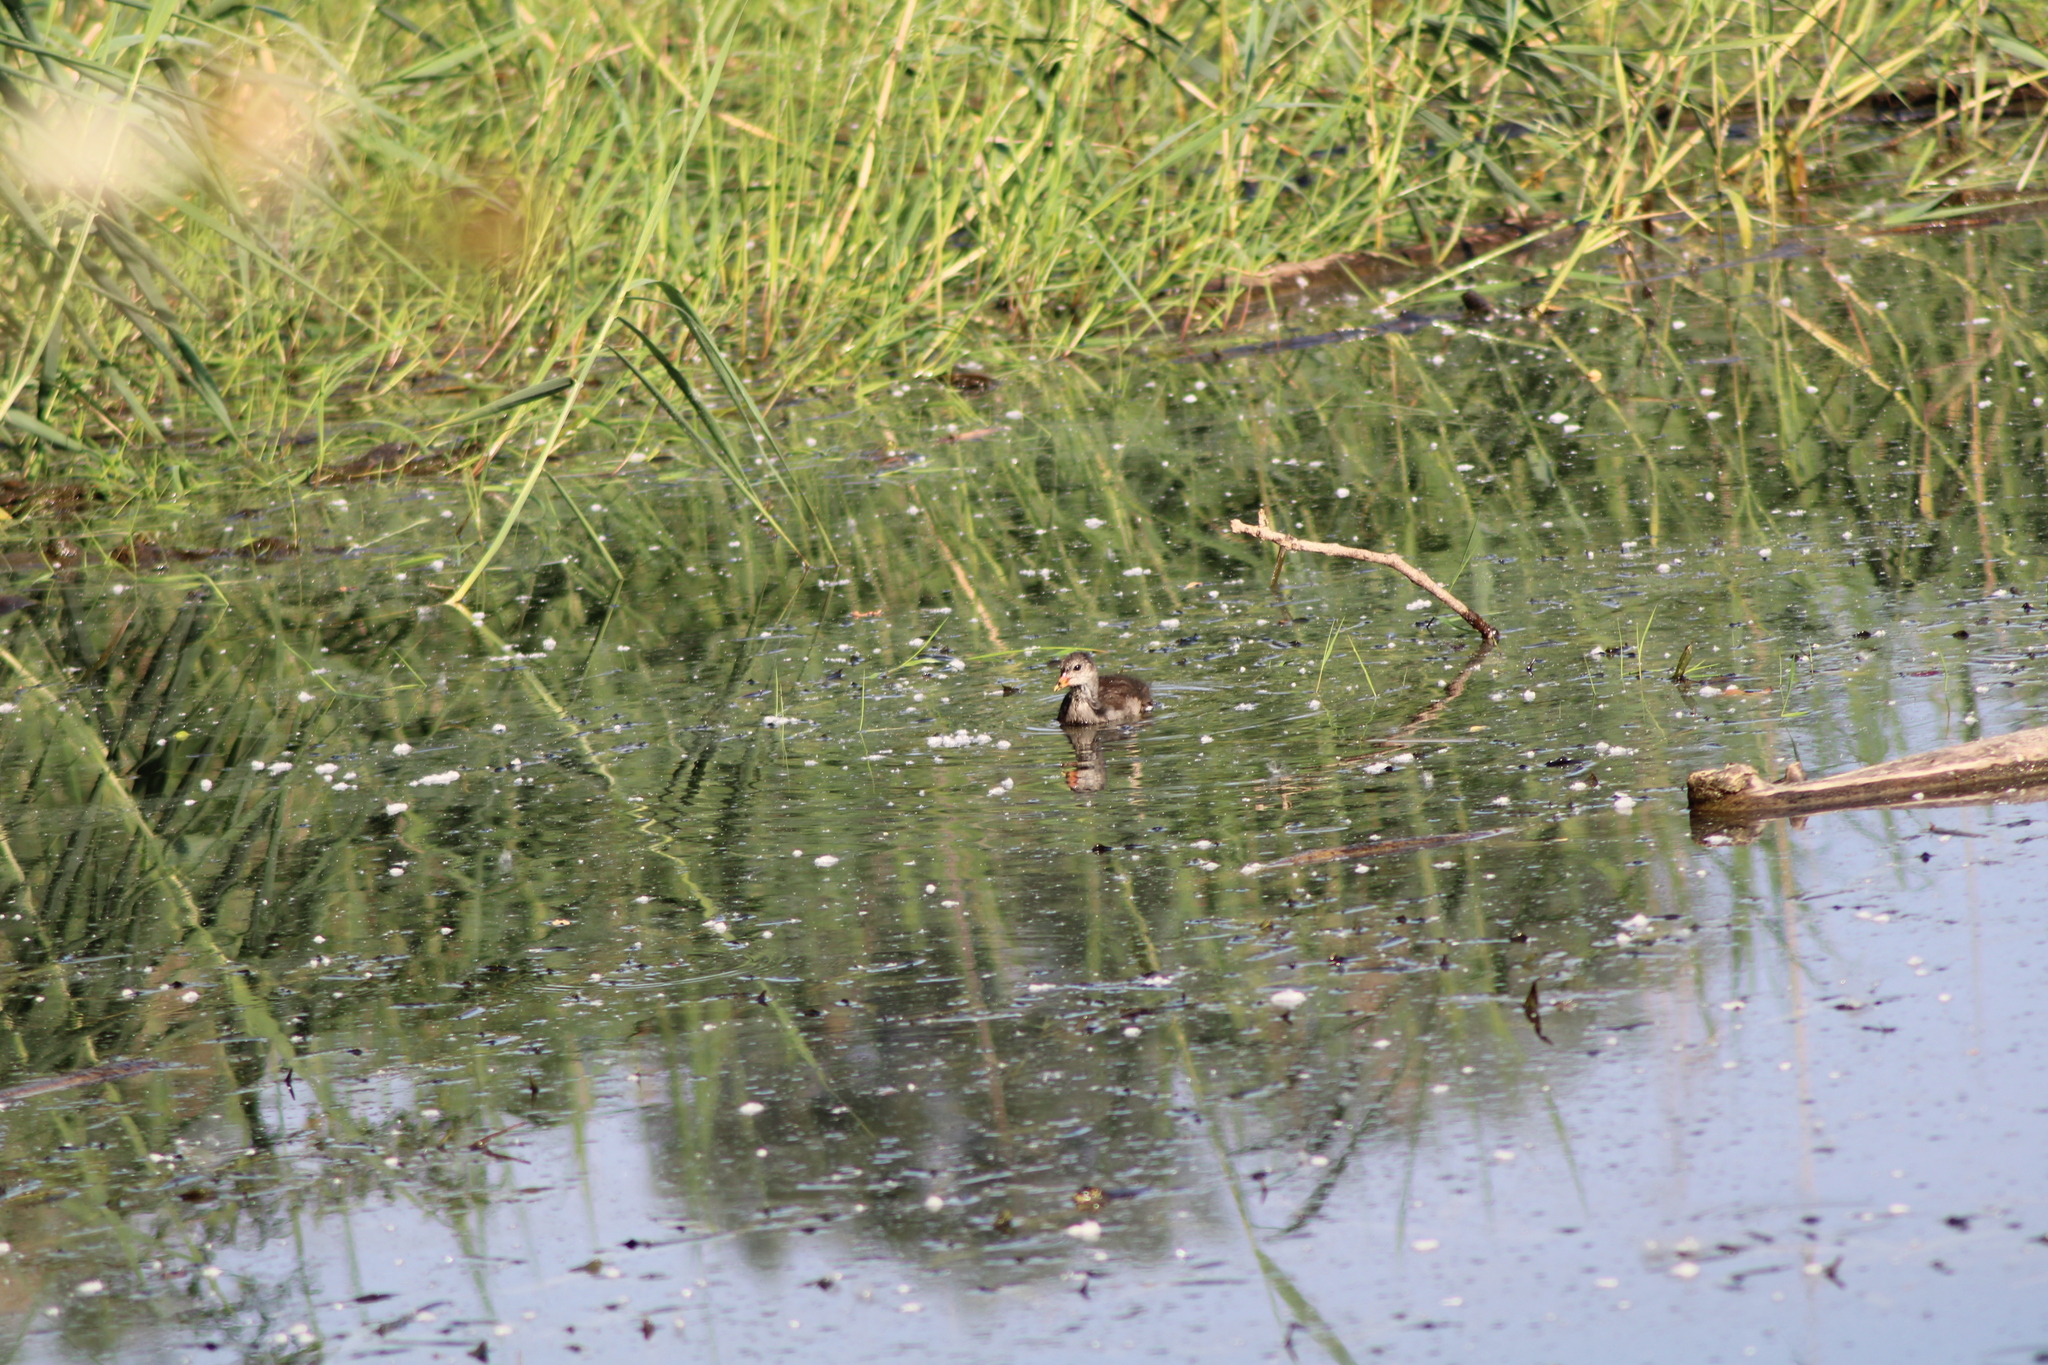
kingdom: Animalia
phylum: Chordata
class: Aves
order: Gruiformes
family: Rallidae
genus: Gallinula
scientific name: Gallinula chloropus
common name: Common moorhen
